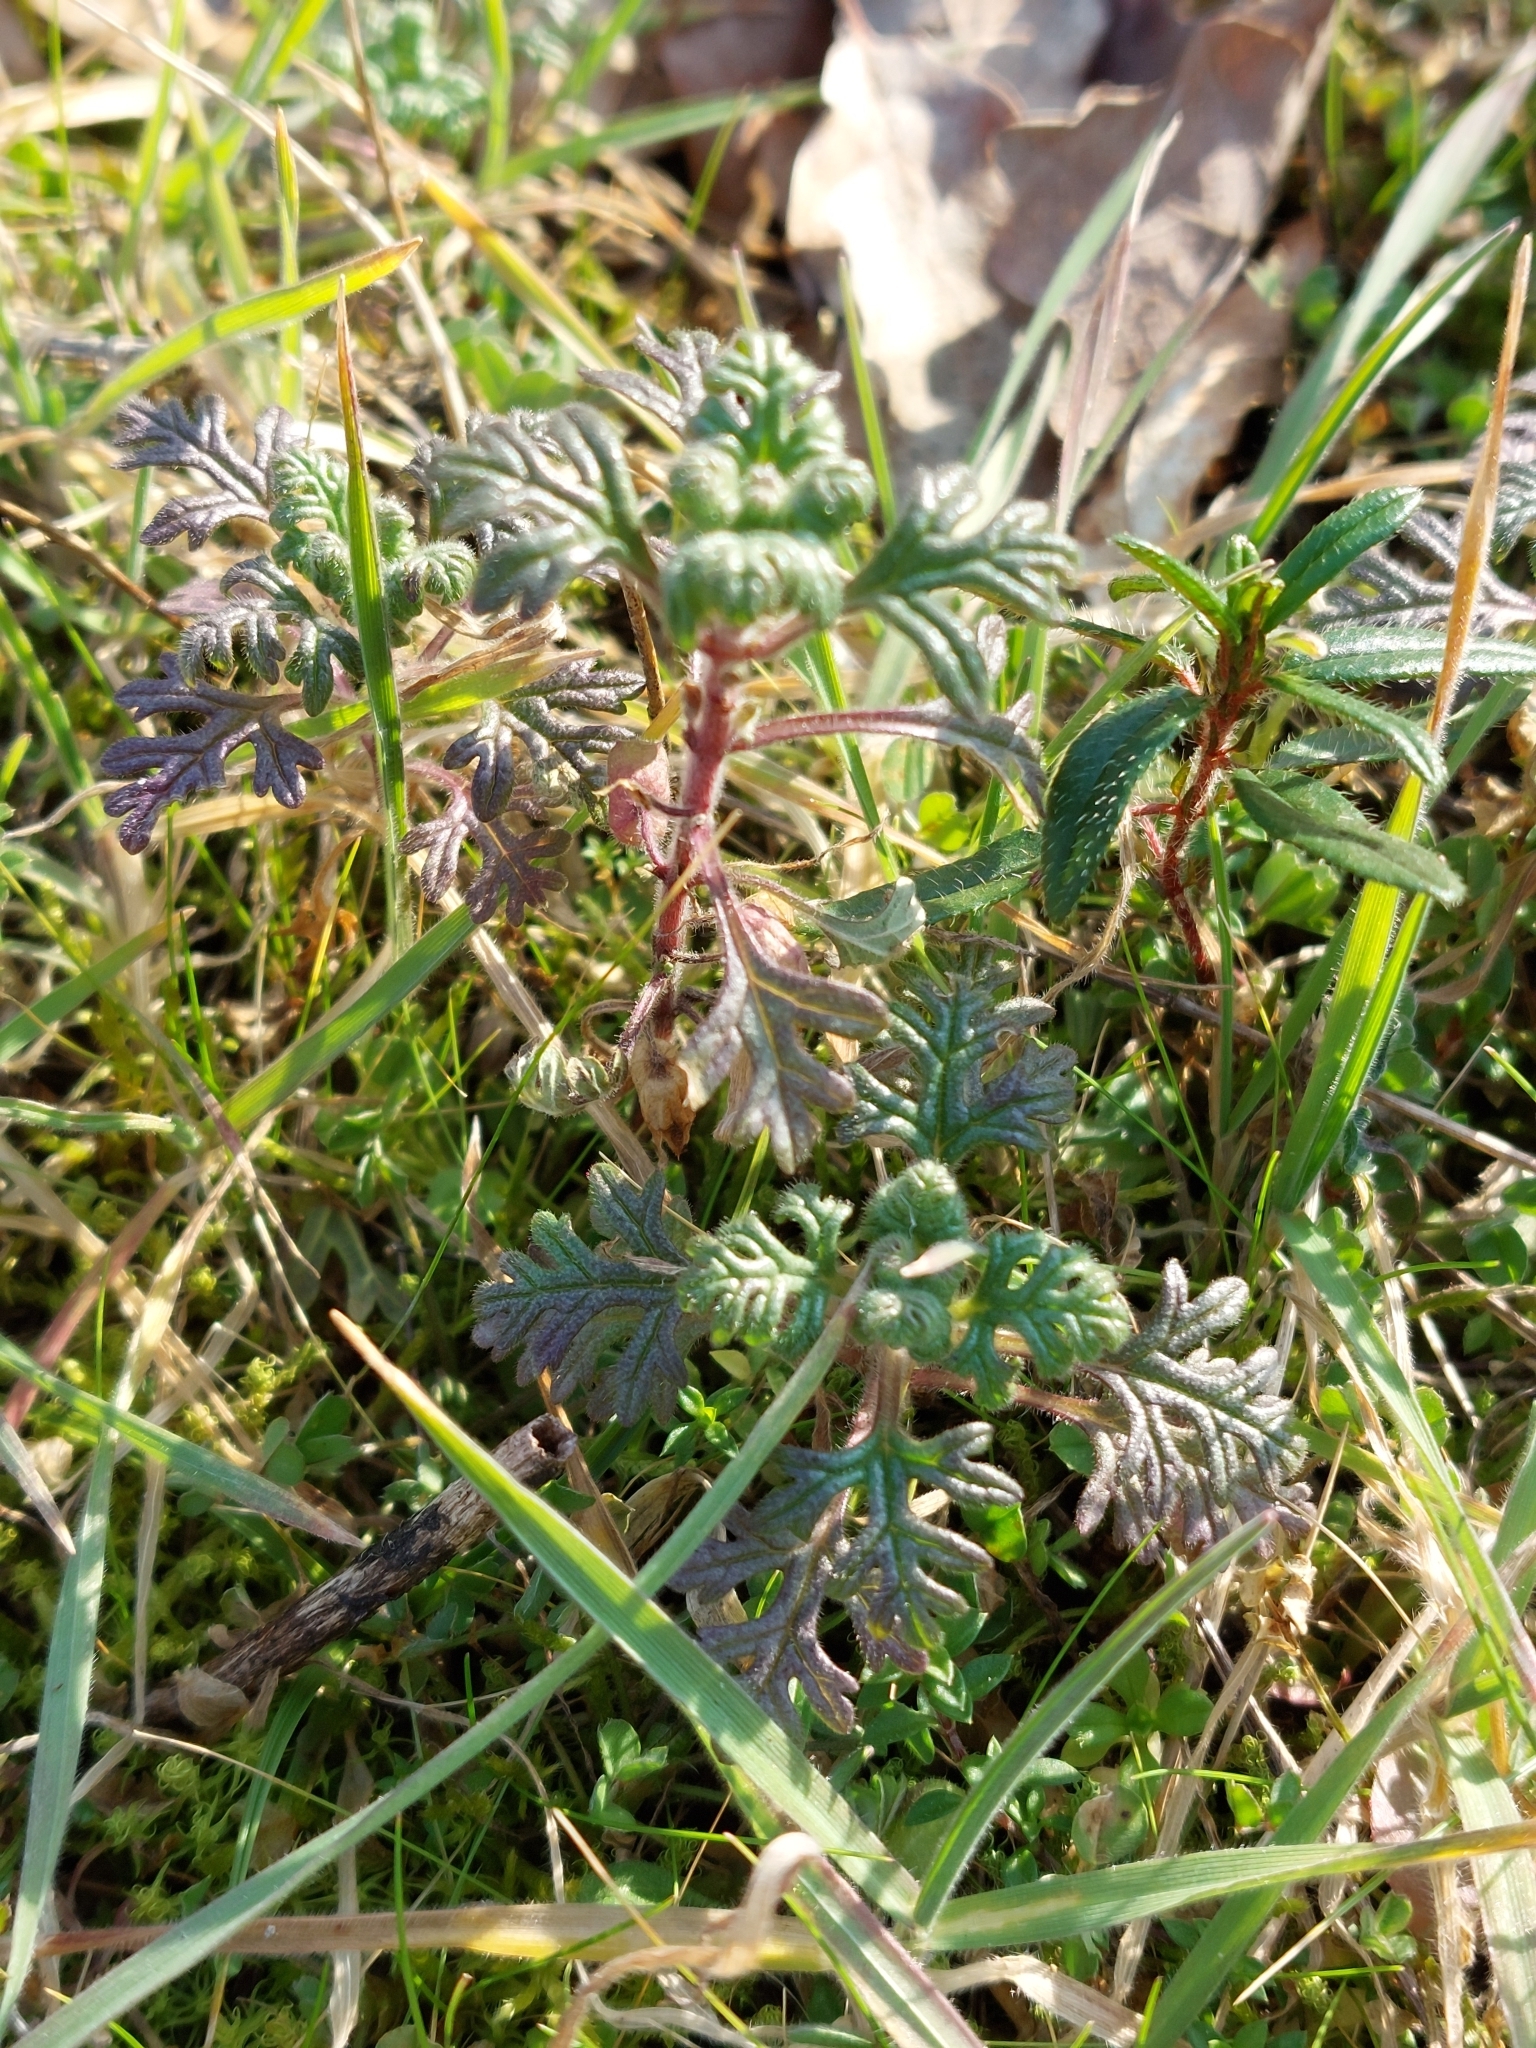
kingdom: Plantae
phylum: Tracheophyta
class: Magnoliopsida
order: Lamiales
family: Lamiaceae
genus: Teucrium
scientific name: Teucrium botrys
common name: Cut-leaved germander
